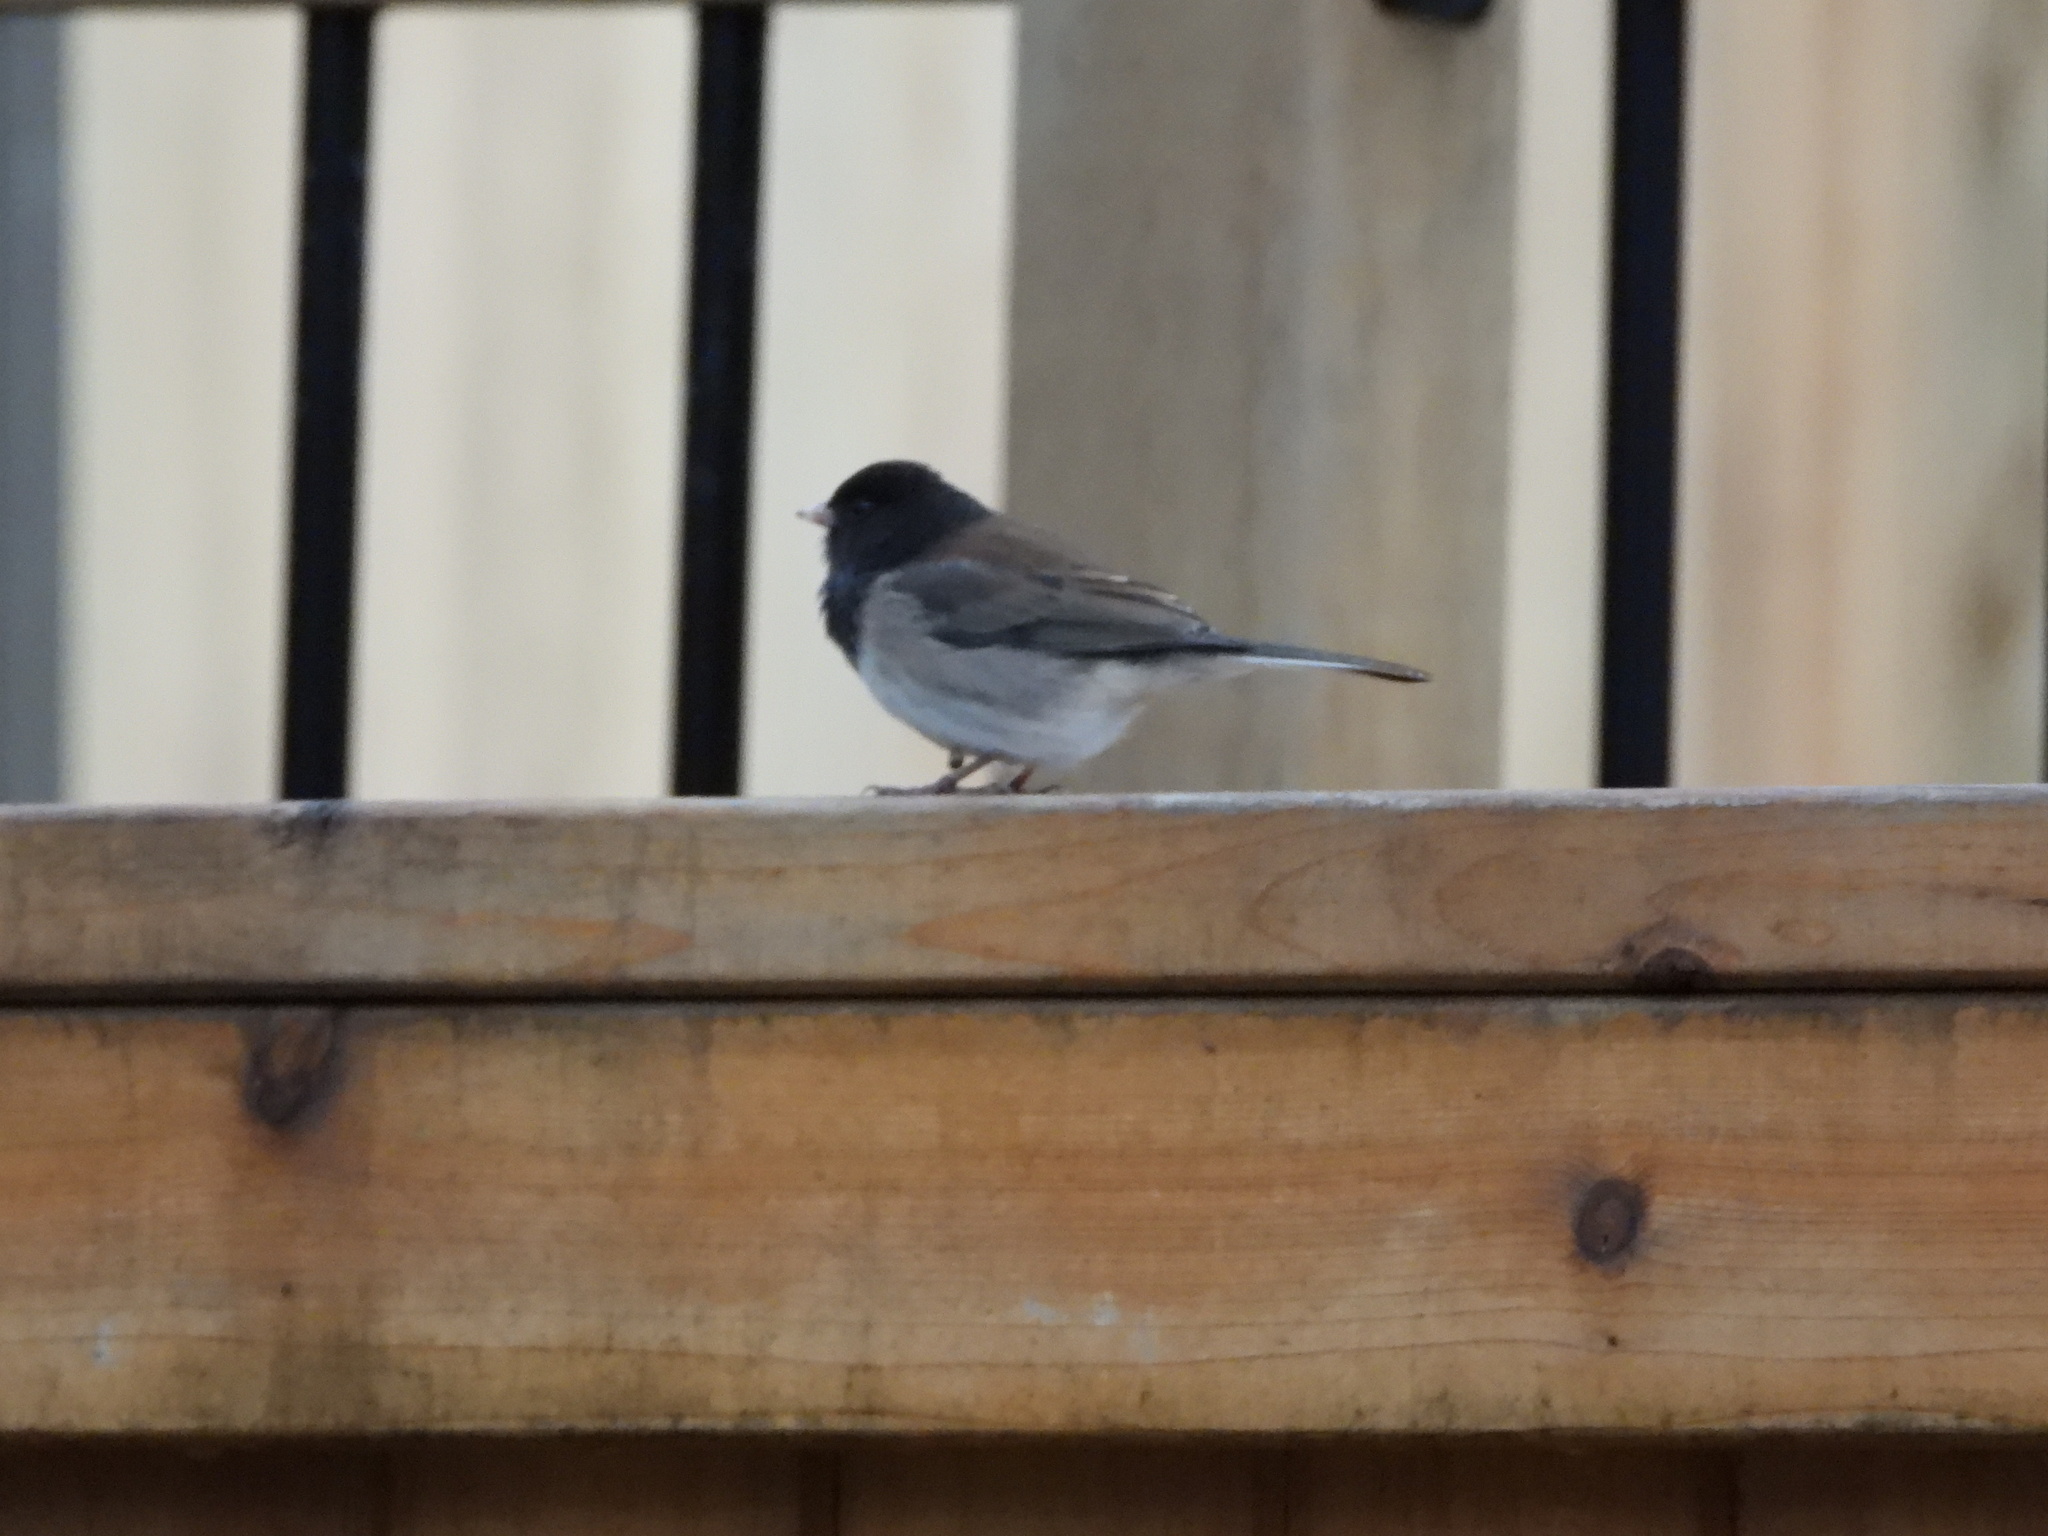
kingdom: Animalia
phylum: Chordata
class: Aves
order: Passeriformes
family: Passerellidae
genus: Junco
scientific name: Junco hyemalis
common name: Dark-eyed junco
